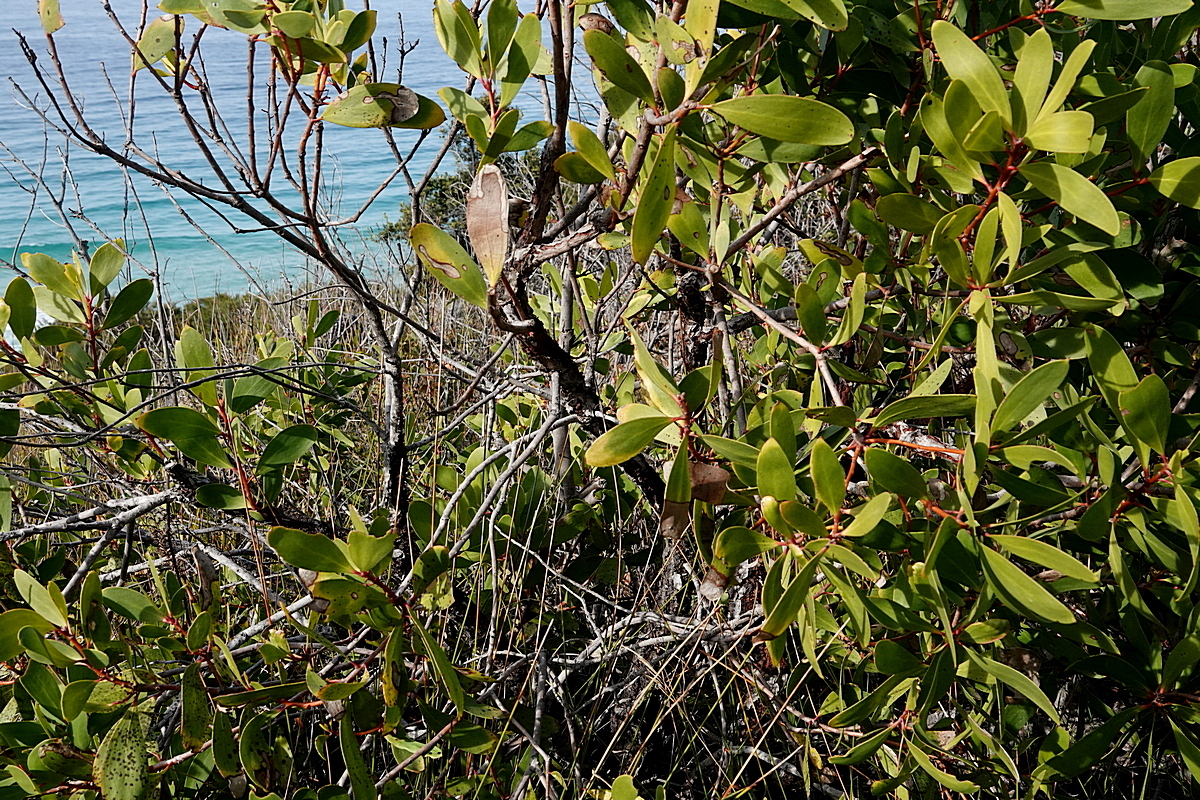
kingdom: Plantae
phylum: Tracheophyta
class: Magnoliopsida
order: Proteales
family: Proteaceae
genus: Persoonia
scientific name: Persoonia levis
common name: Smooth geebung
